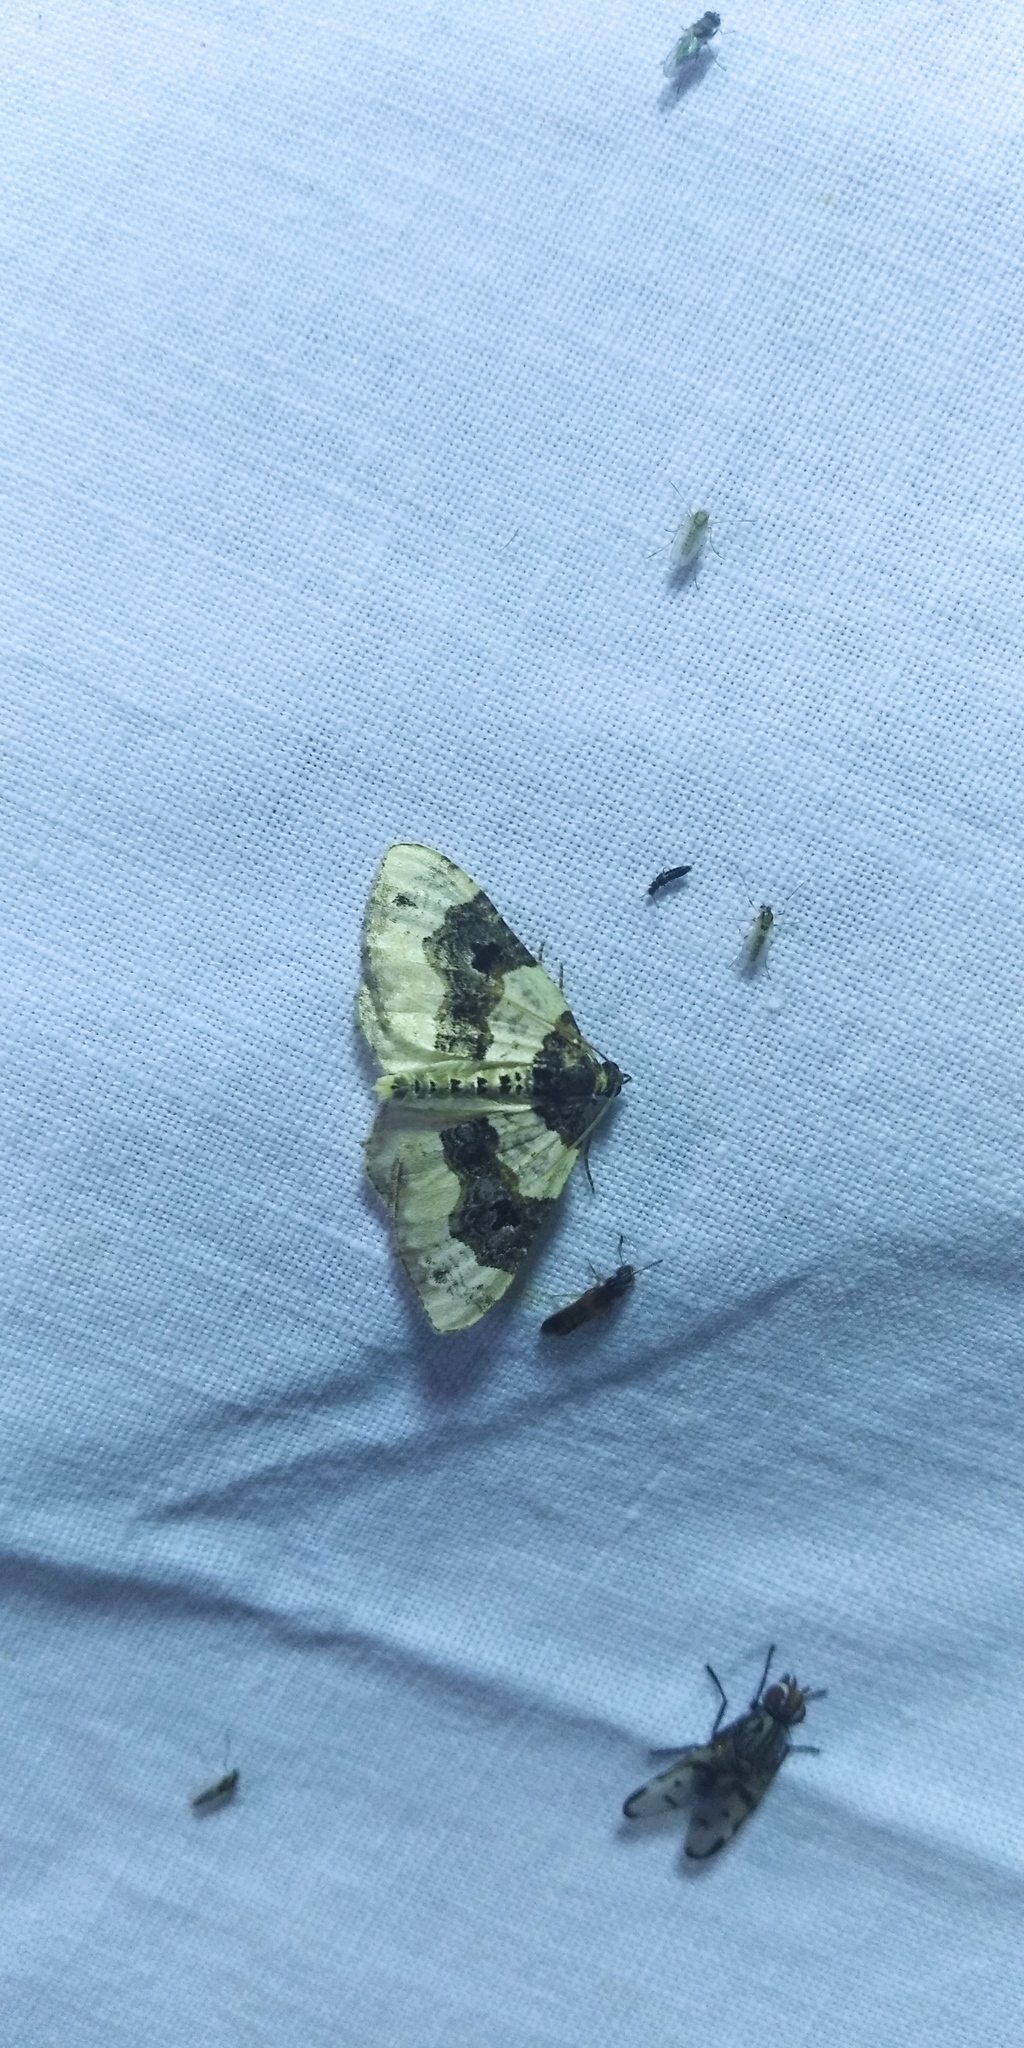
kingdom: Animalia
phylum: Arthropoda
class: Insecta
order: Lepidoptera
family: Geometridae
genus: Cosmorhoe
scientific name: Cosmorhoe ocellata
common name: Purple bar
